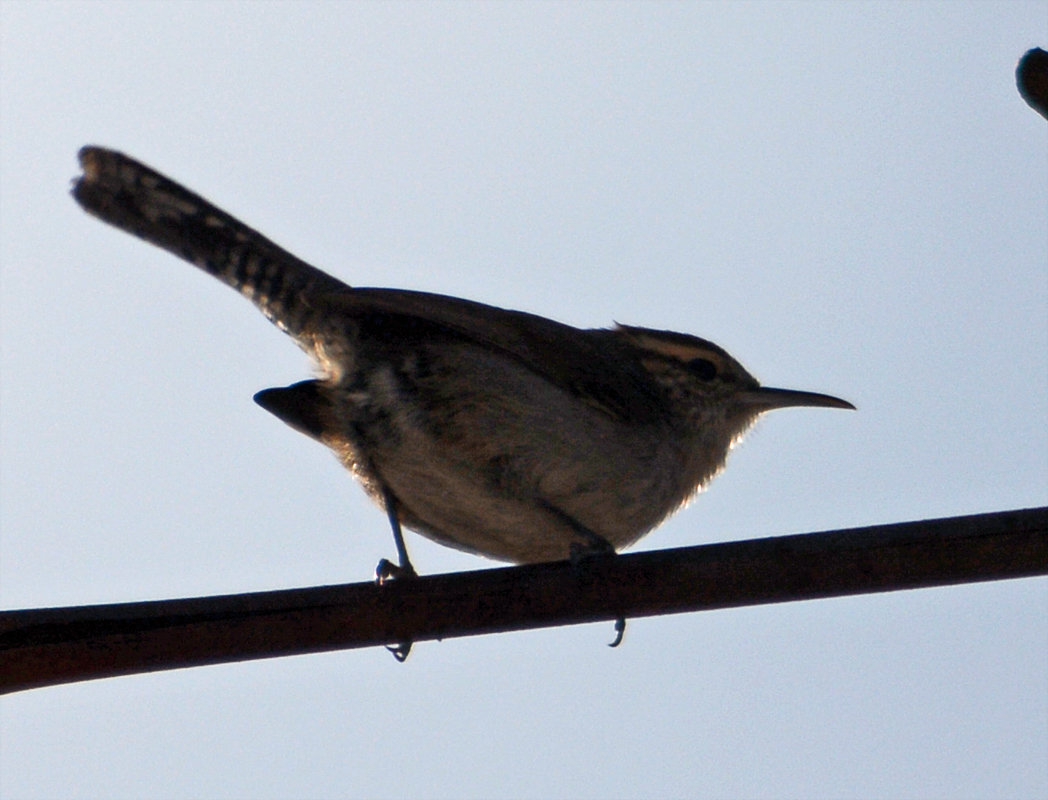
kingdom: Animalia
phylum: Chordata
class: Aves
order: Passeriformes
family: Troglodytidae
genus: Thryomanes
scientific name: Thryomanes bewickii
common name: Bewick's wren
